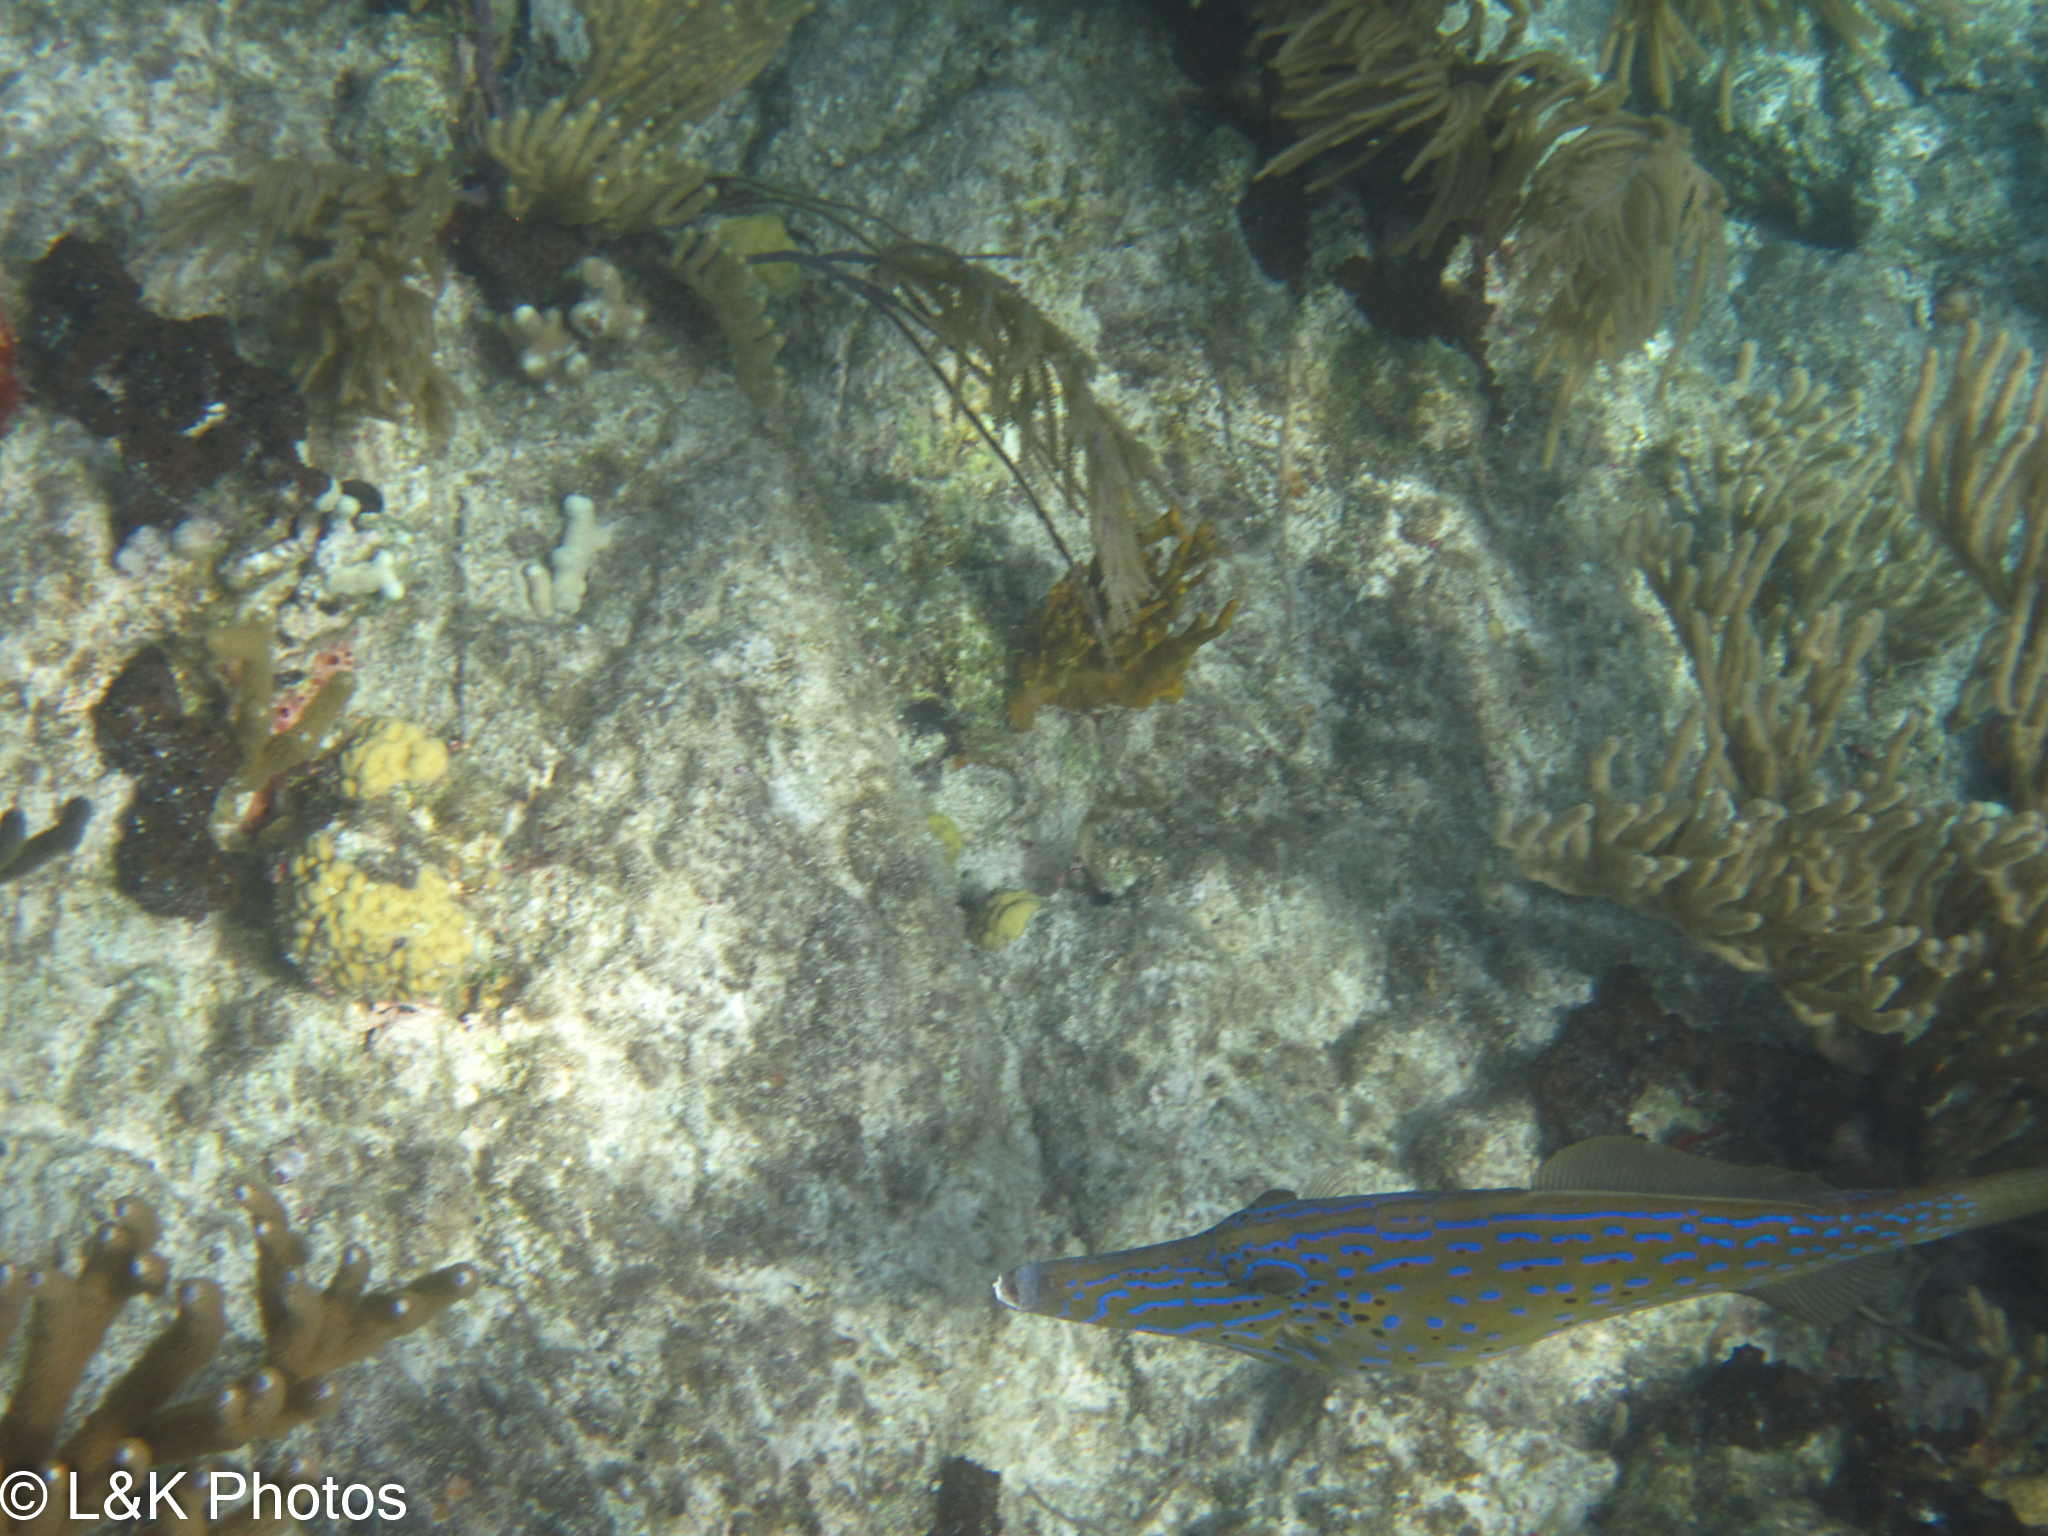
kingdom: Animalia
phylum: Chordata
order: Tetraodontiformes
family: Monacanthidae
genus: Aluterus
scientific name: Aluterus scriptus
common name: Scribbled leatherjacket filefish
